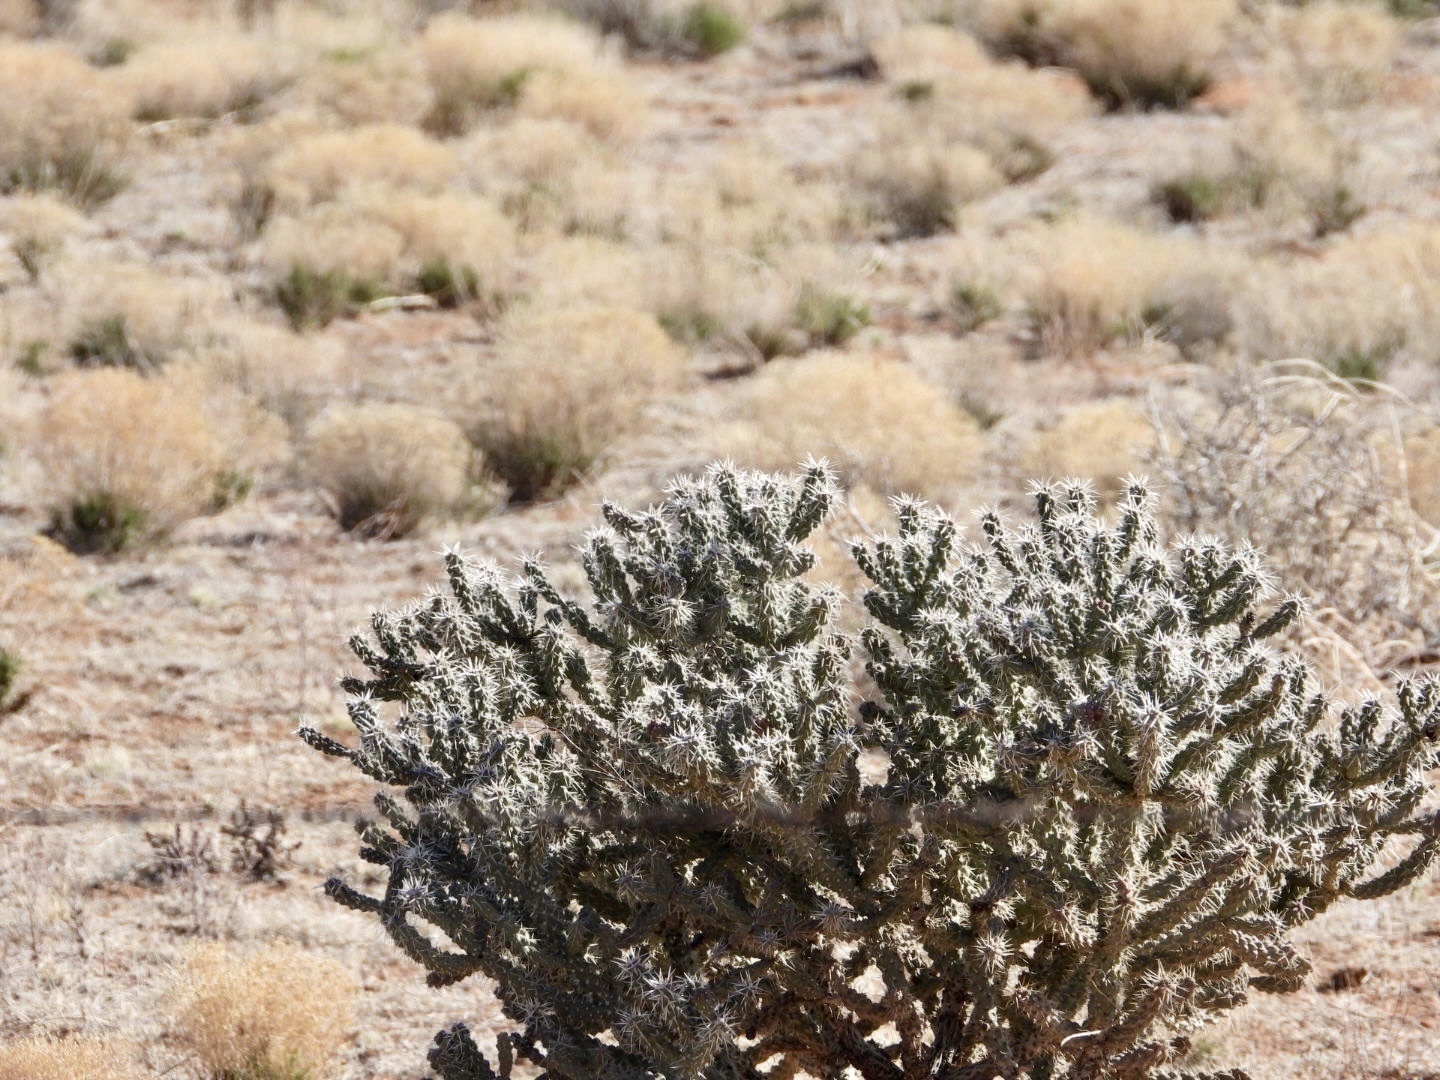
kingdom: Plantae
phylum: Tracheophyta
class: Magnoliopsida
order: Caryophyllales
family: Cactaceae
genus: Cylindropuntia
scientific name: Cylindropuntia whipplei
